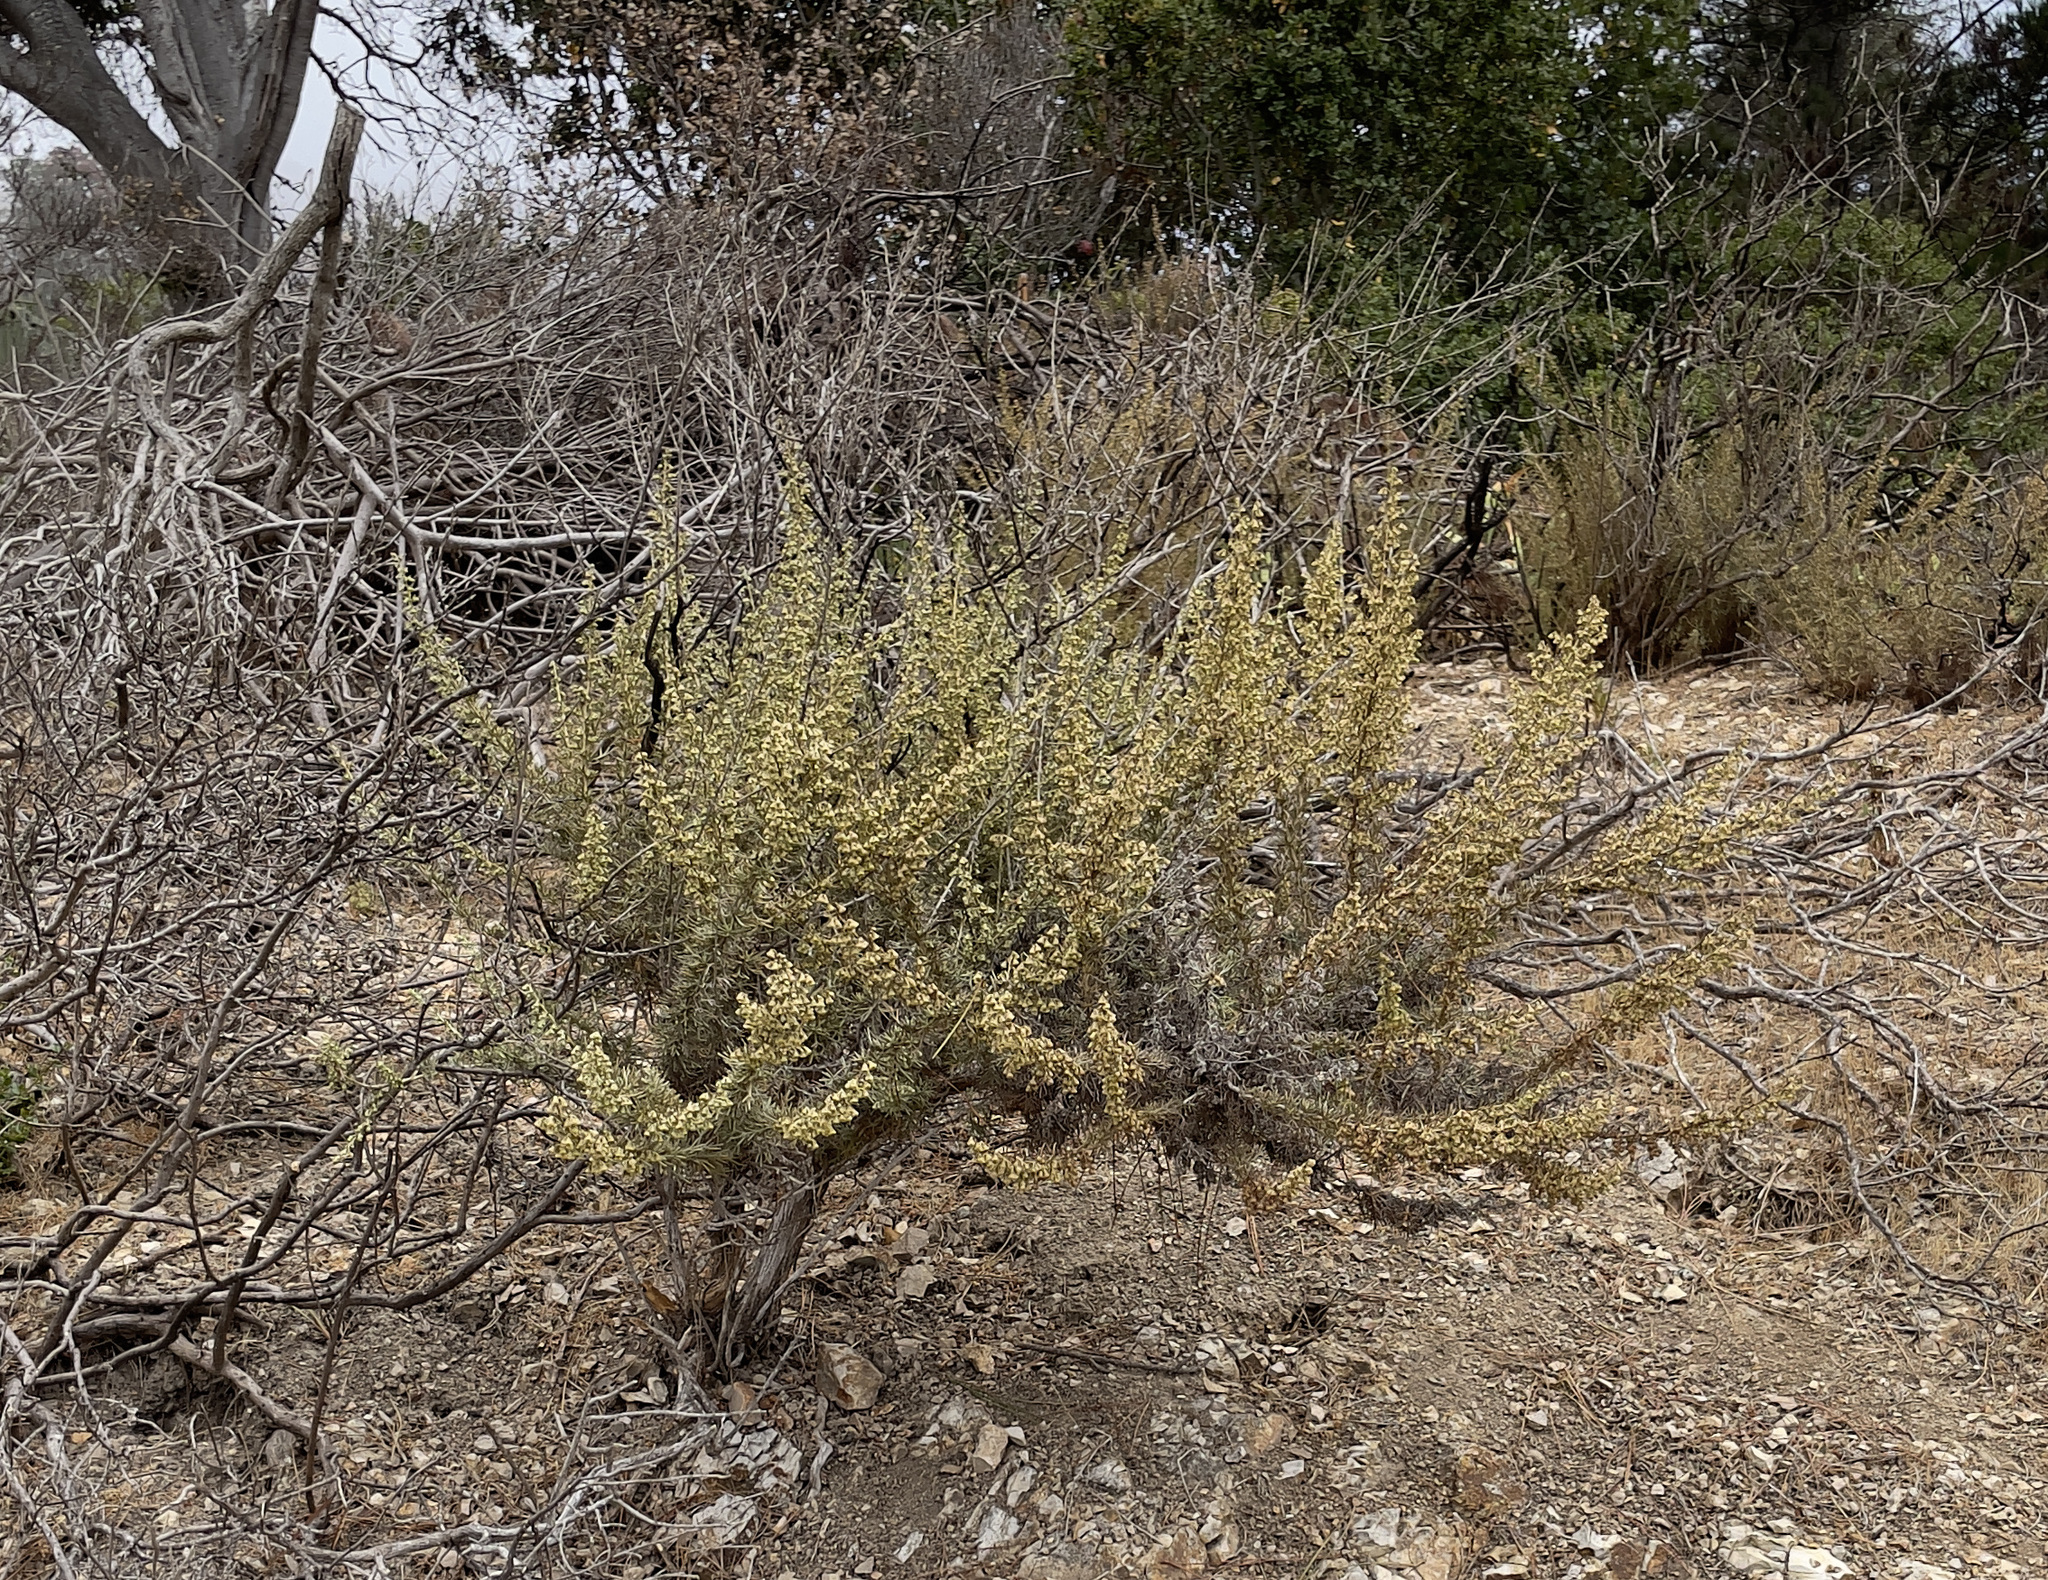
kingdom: Plantae
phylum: Tracheophyta
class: Magnoliopsida
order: Asterales
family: Asteraceae
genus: Artemisia
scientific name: Artemisia californica
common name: California sagebrush
